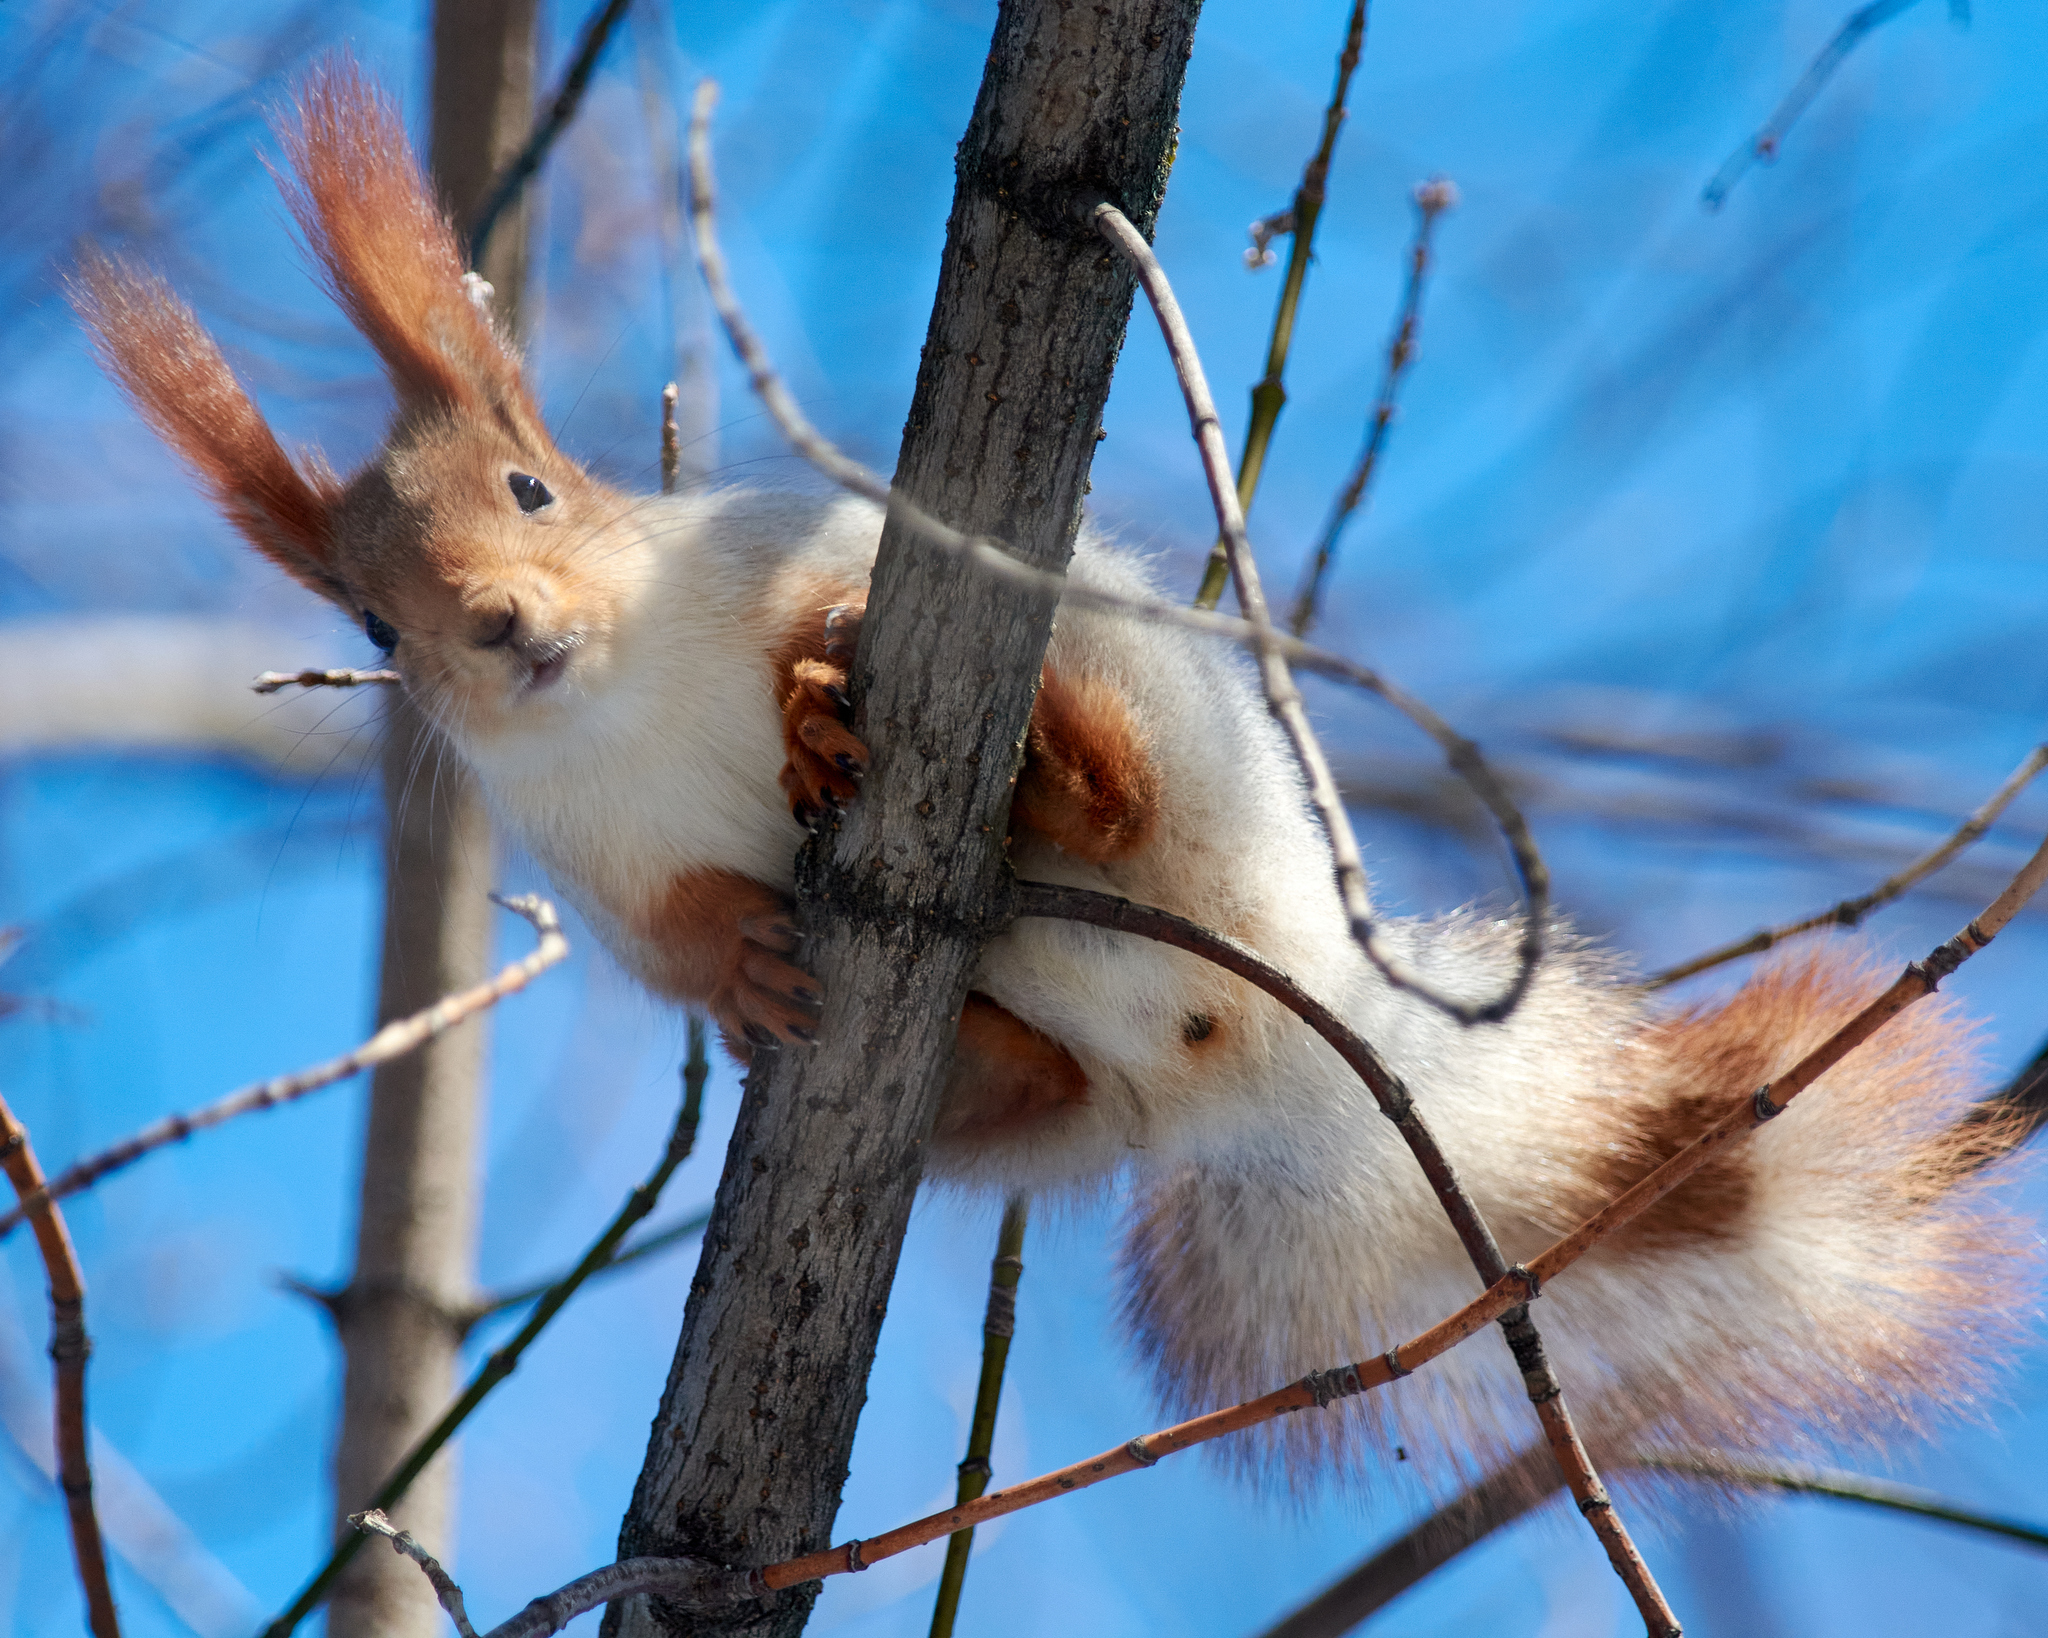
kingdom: Animalia
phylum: Chordata
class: Mammalia
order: Rodentia
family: Sciuridae
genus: Sciurus
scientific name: Sciurus vulgaris
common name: Eurasian red squirrel
